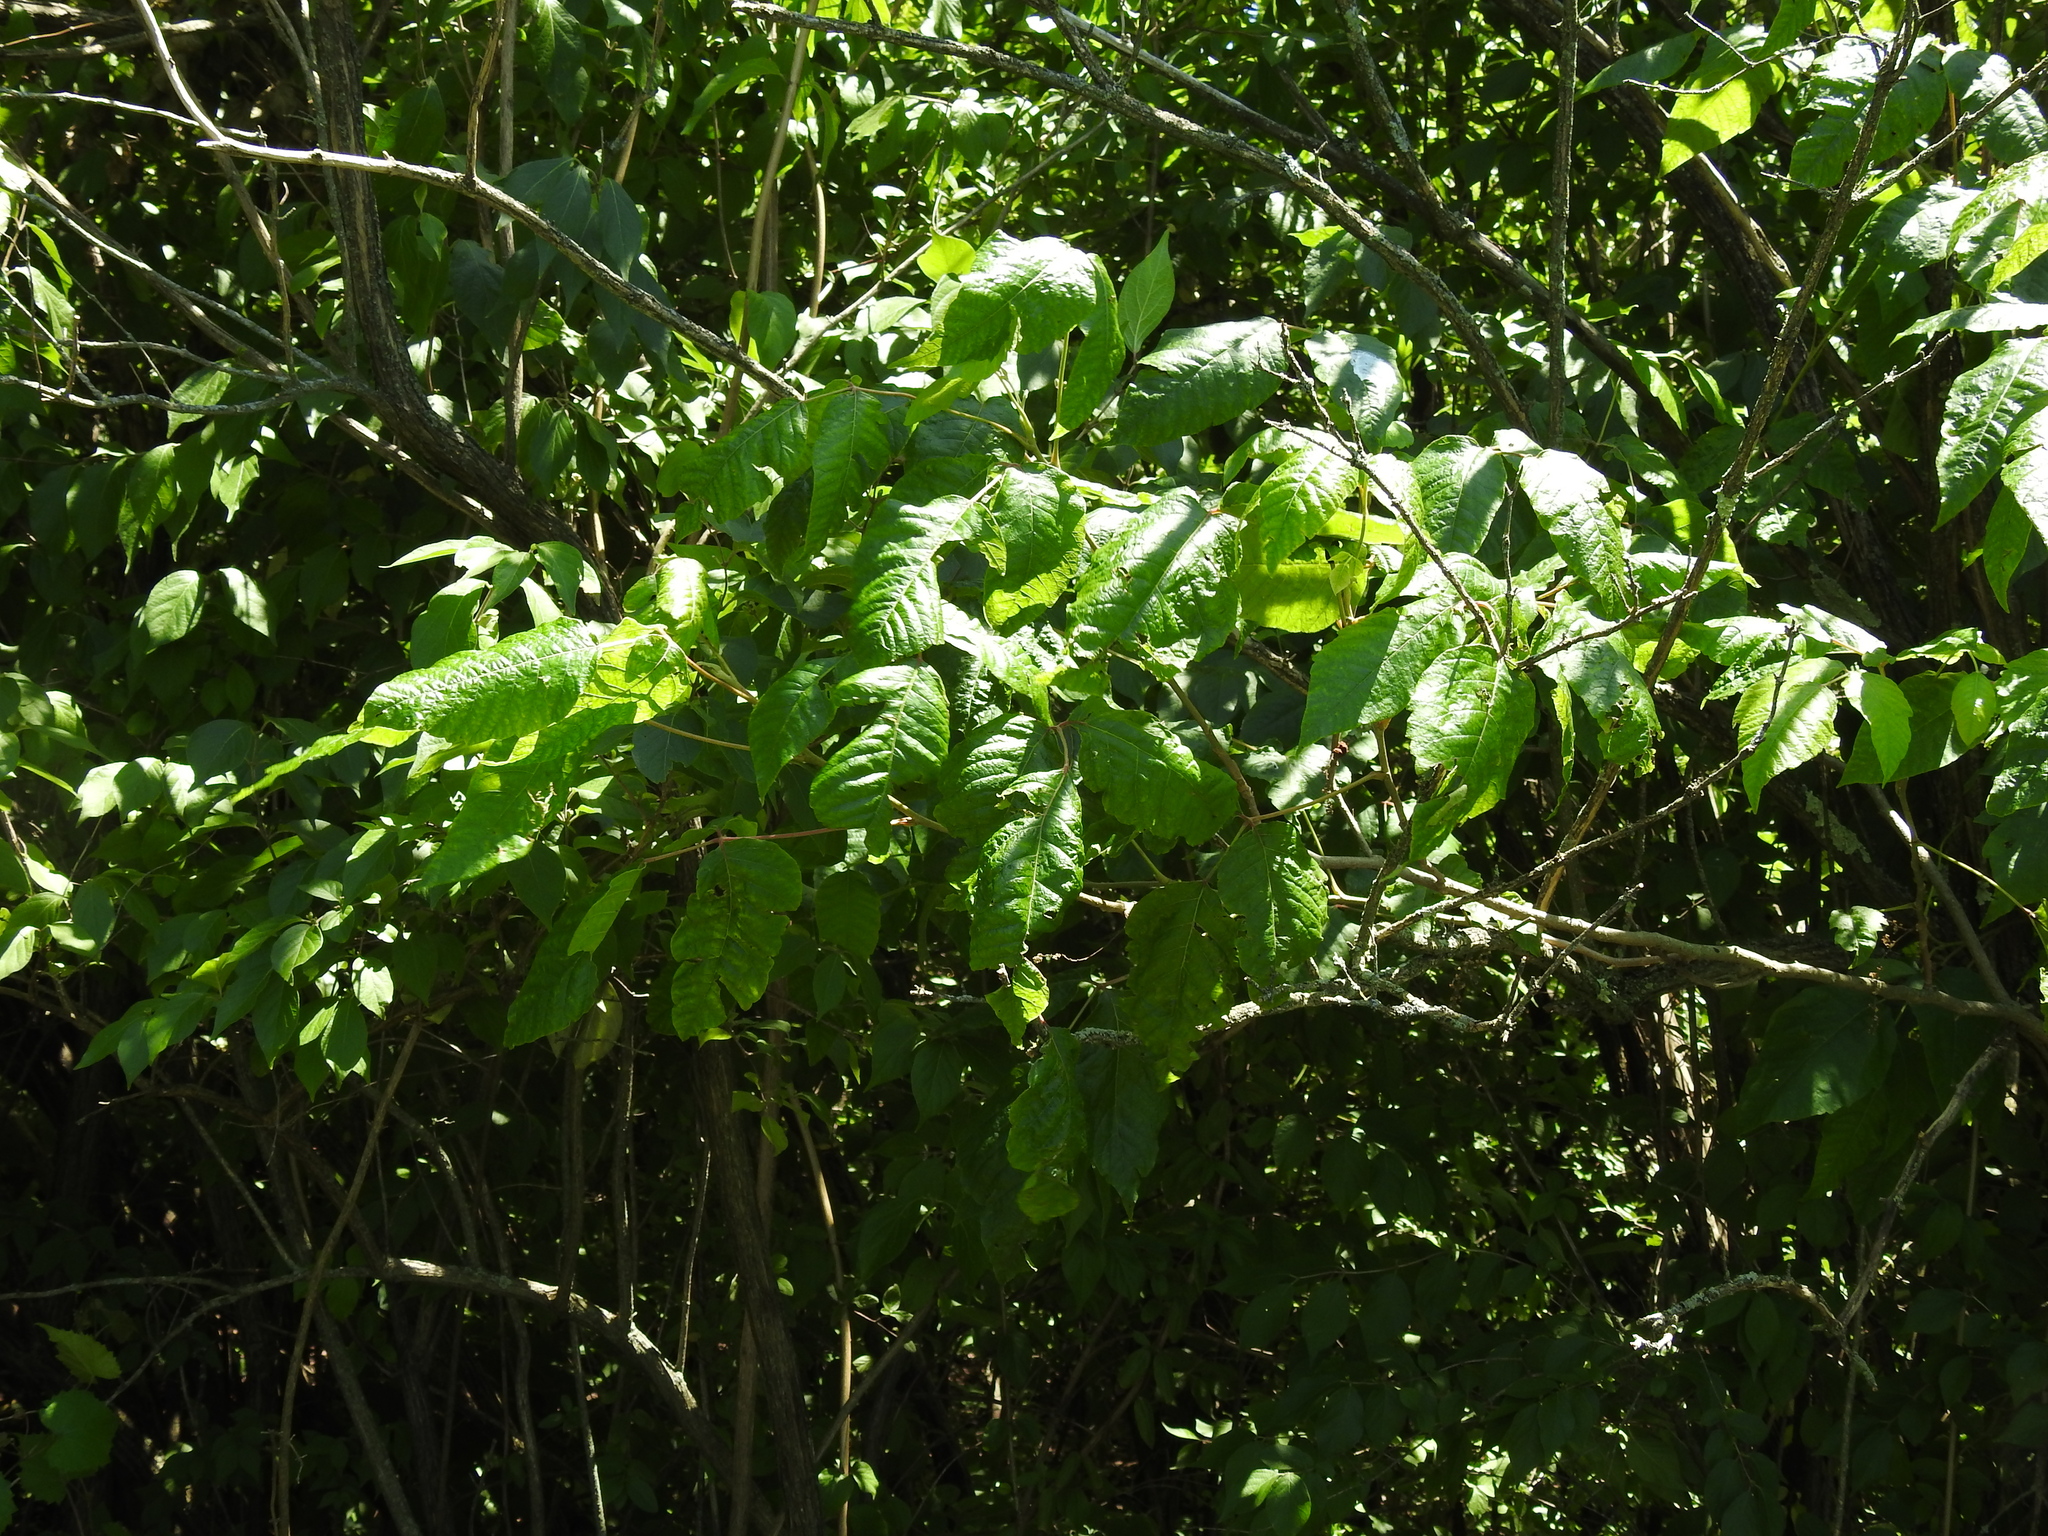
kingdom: Plantae
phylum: Tracheophyta
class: Magnoliopsida
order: Sapindales
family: Anacardiaceae
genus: Toxicodendron
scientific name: Toxicodendron radicans
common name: Poison ivy
